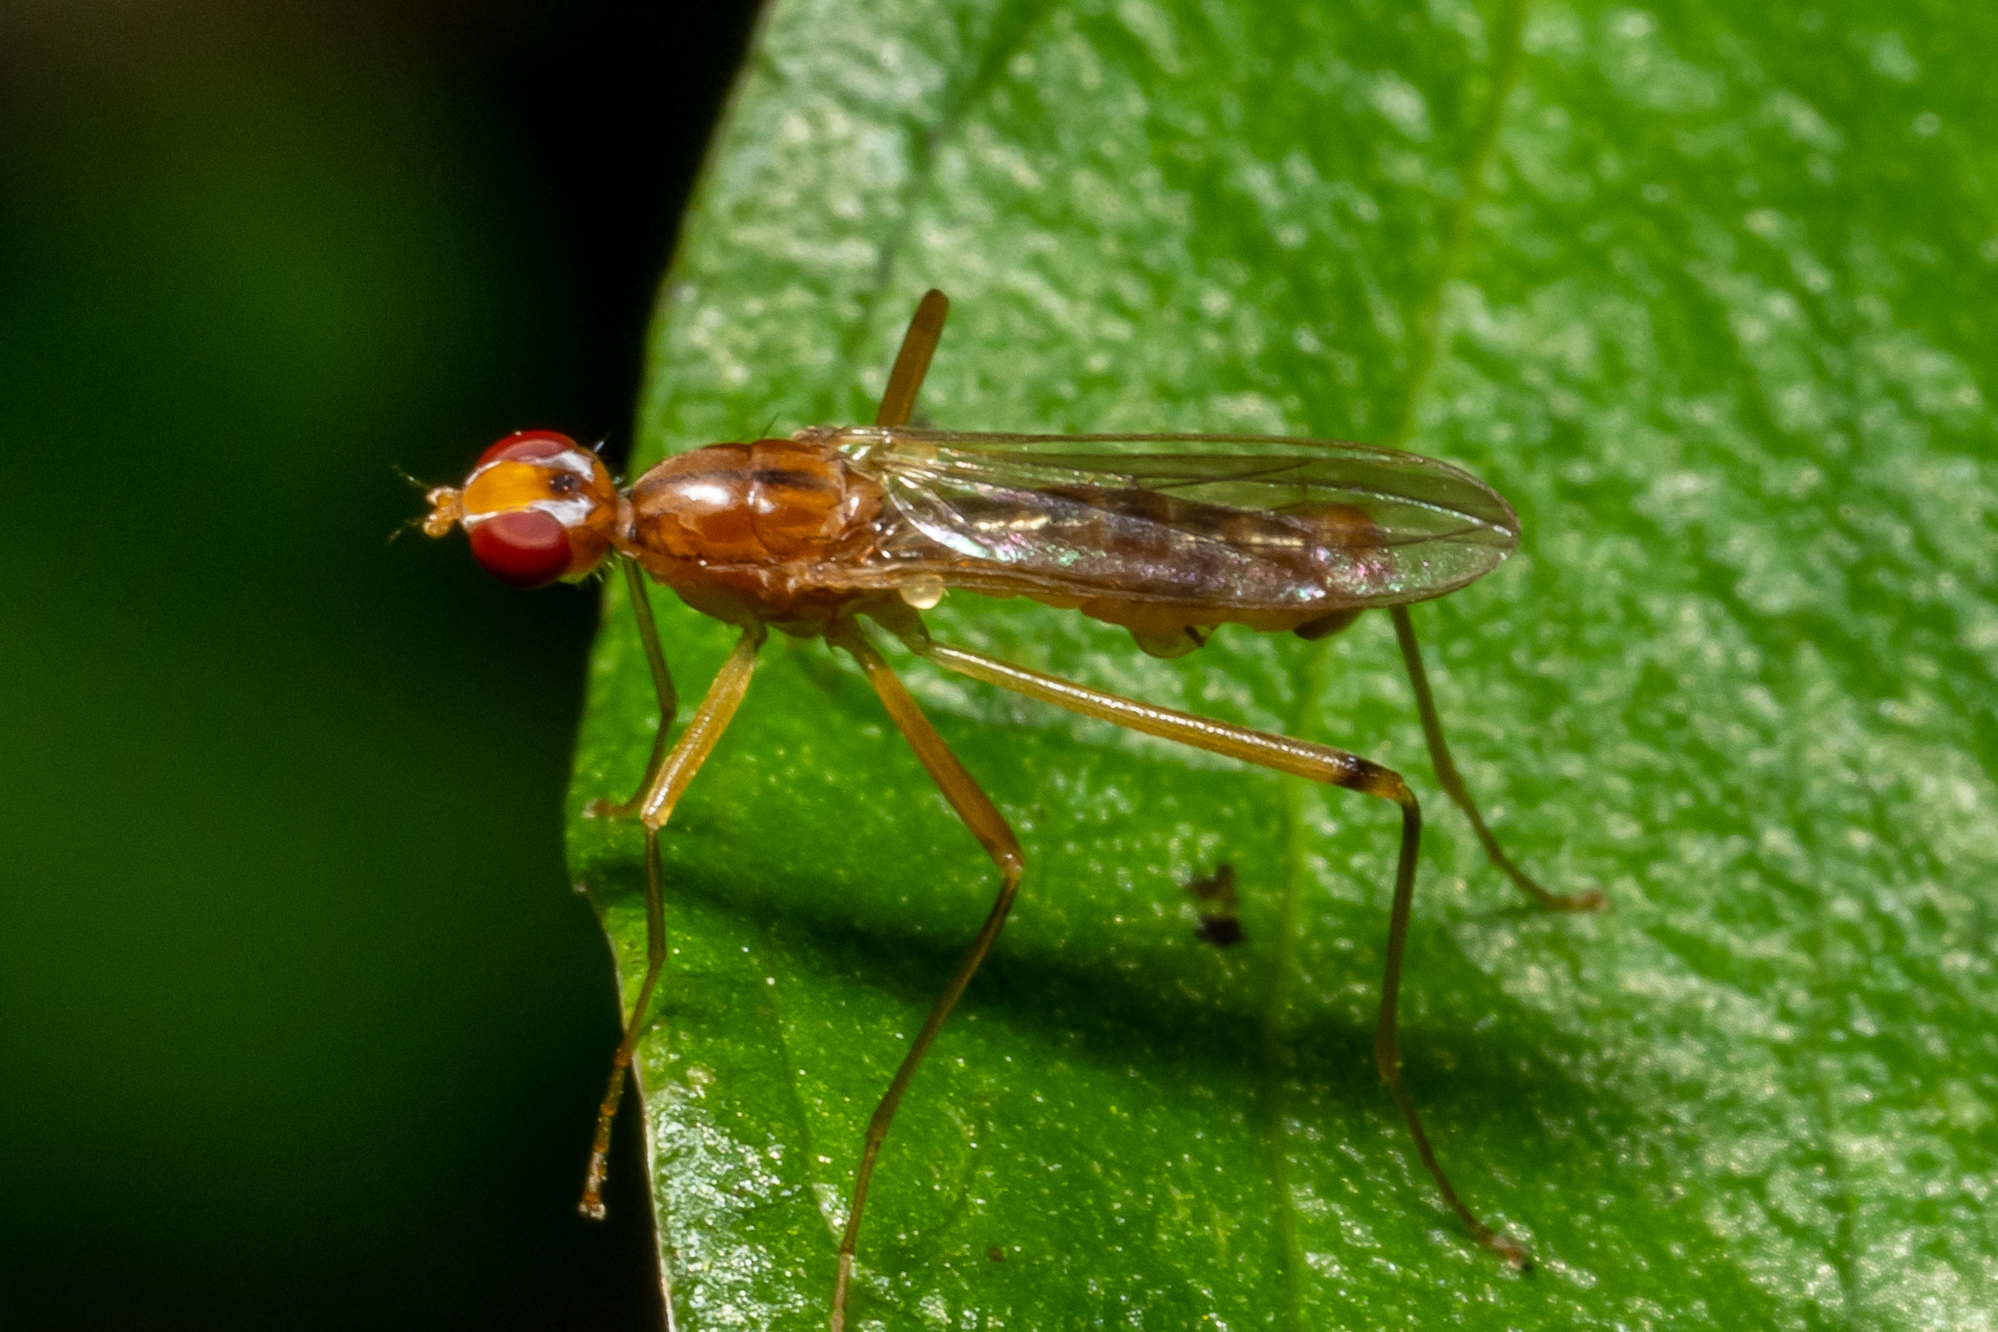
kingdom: Animalia
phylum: Arthropoda
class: Insecta
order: Diptera
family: Micropezidae
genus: Compsobata
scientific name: Compsobata univitta
